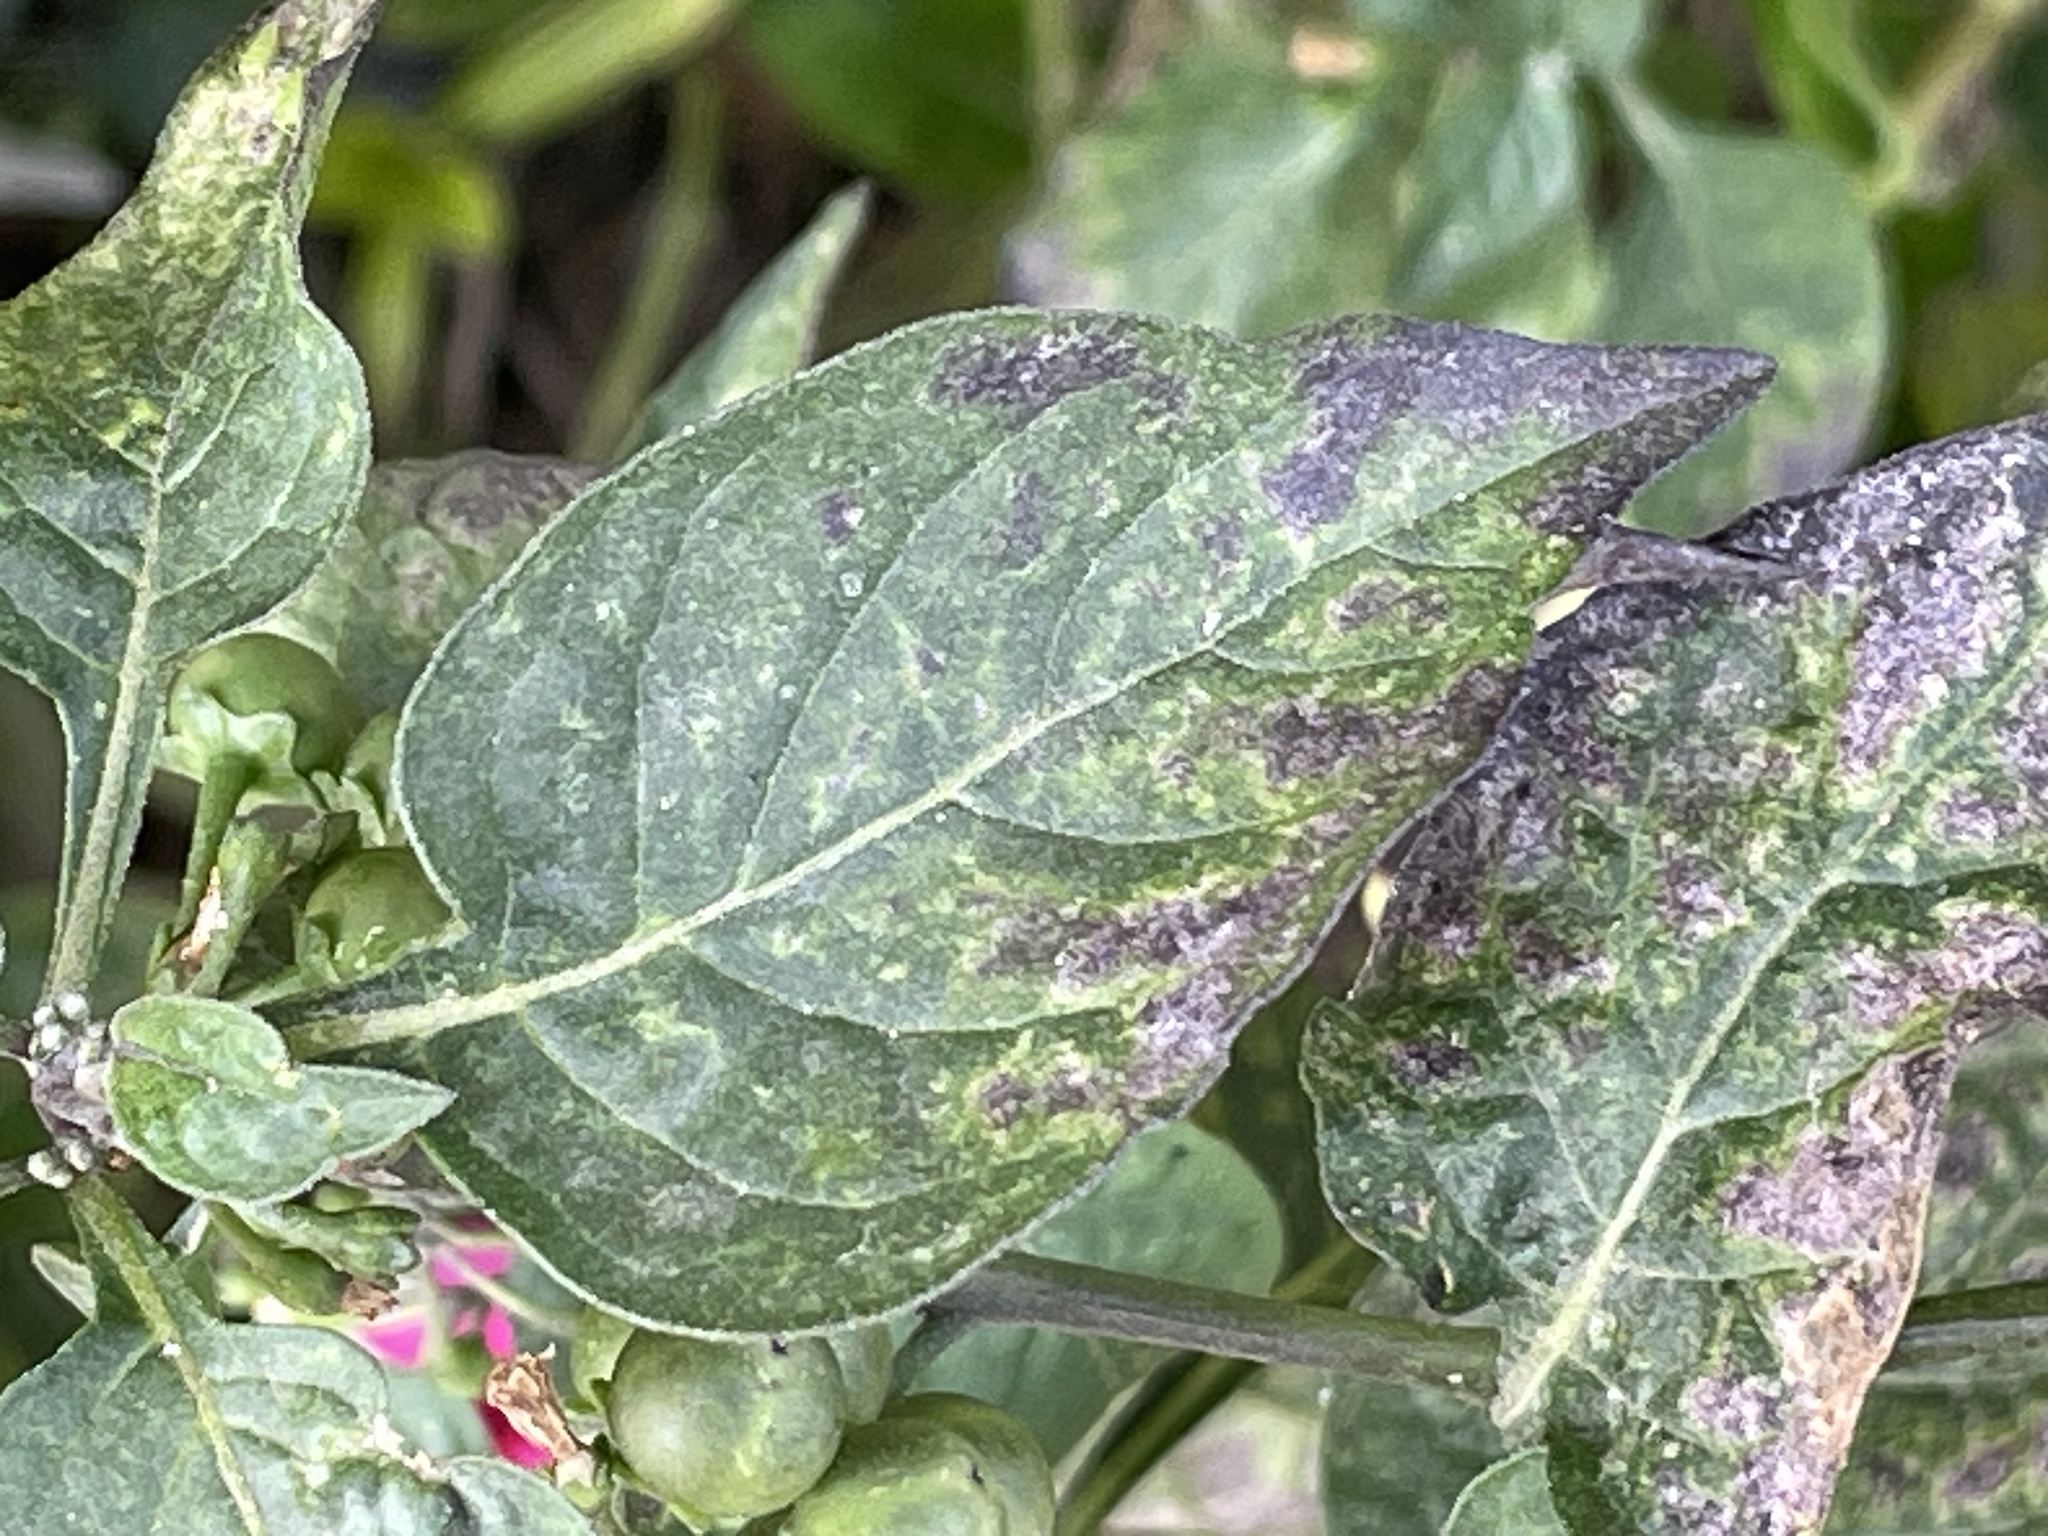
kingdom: Plantae
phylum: Tracheophyta
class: Magnoliopsida
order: Solanales
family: Solanaceae
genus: Solanum
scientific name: Solanum nigrum
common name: Black nightshade
